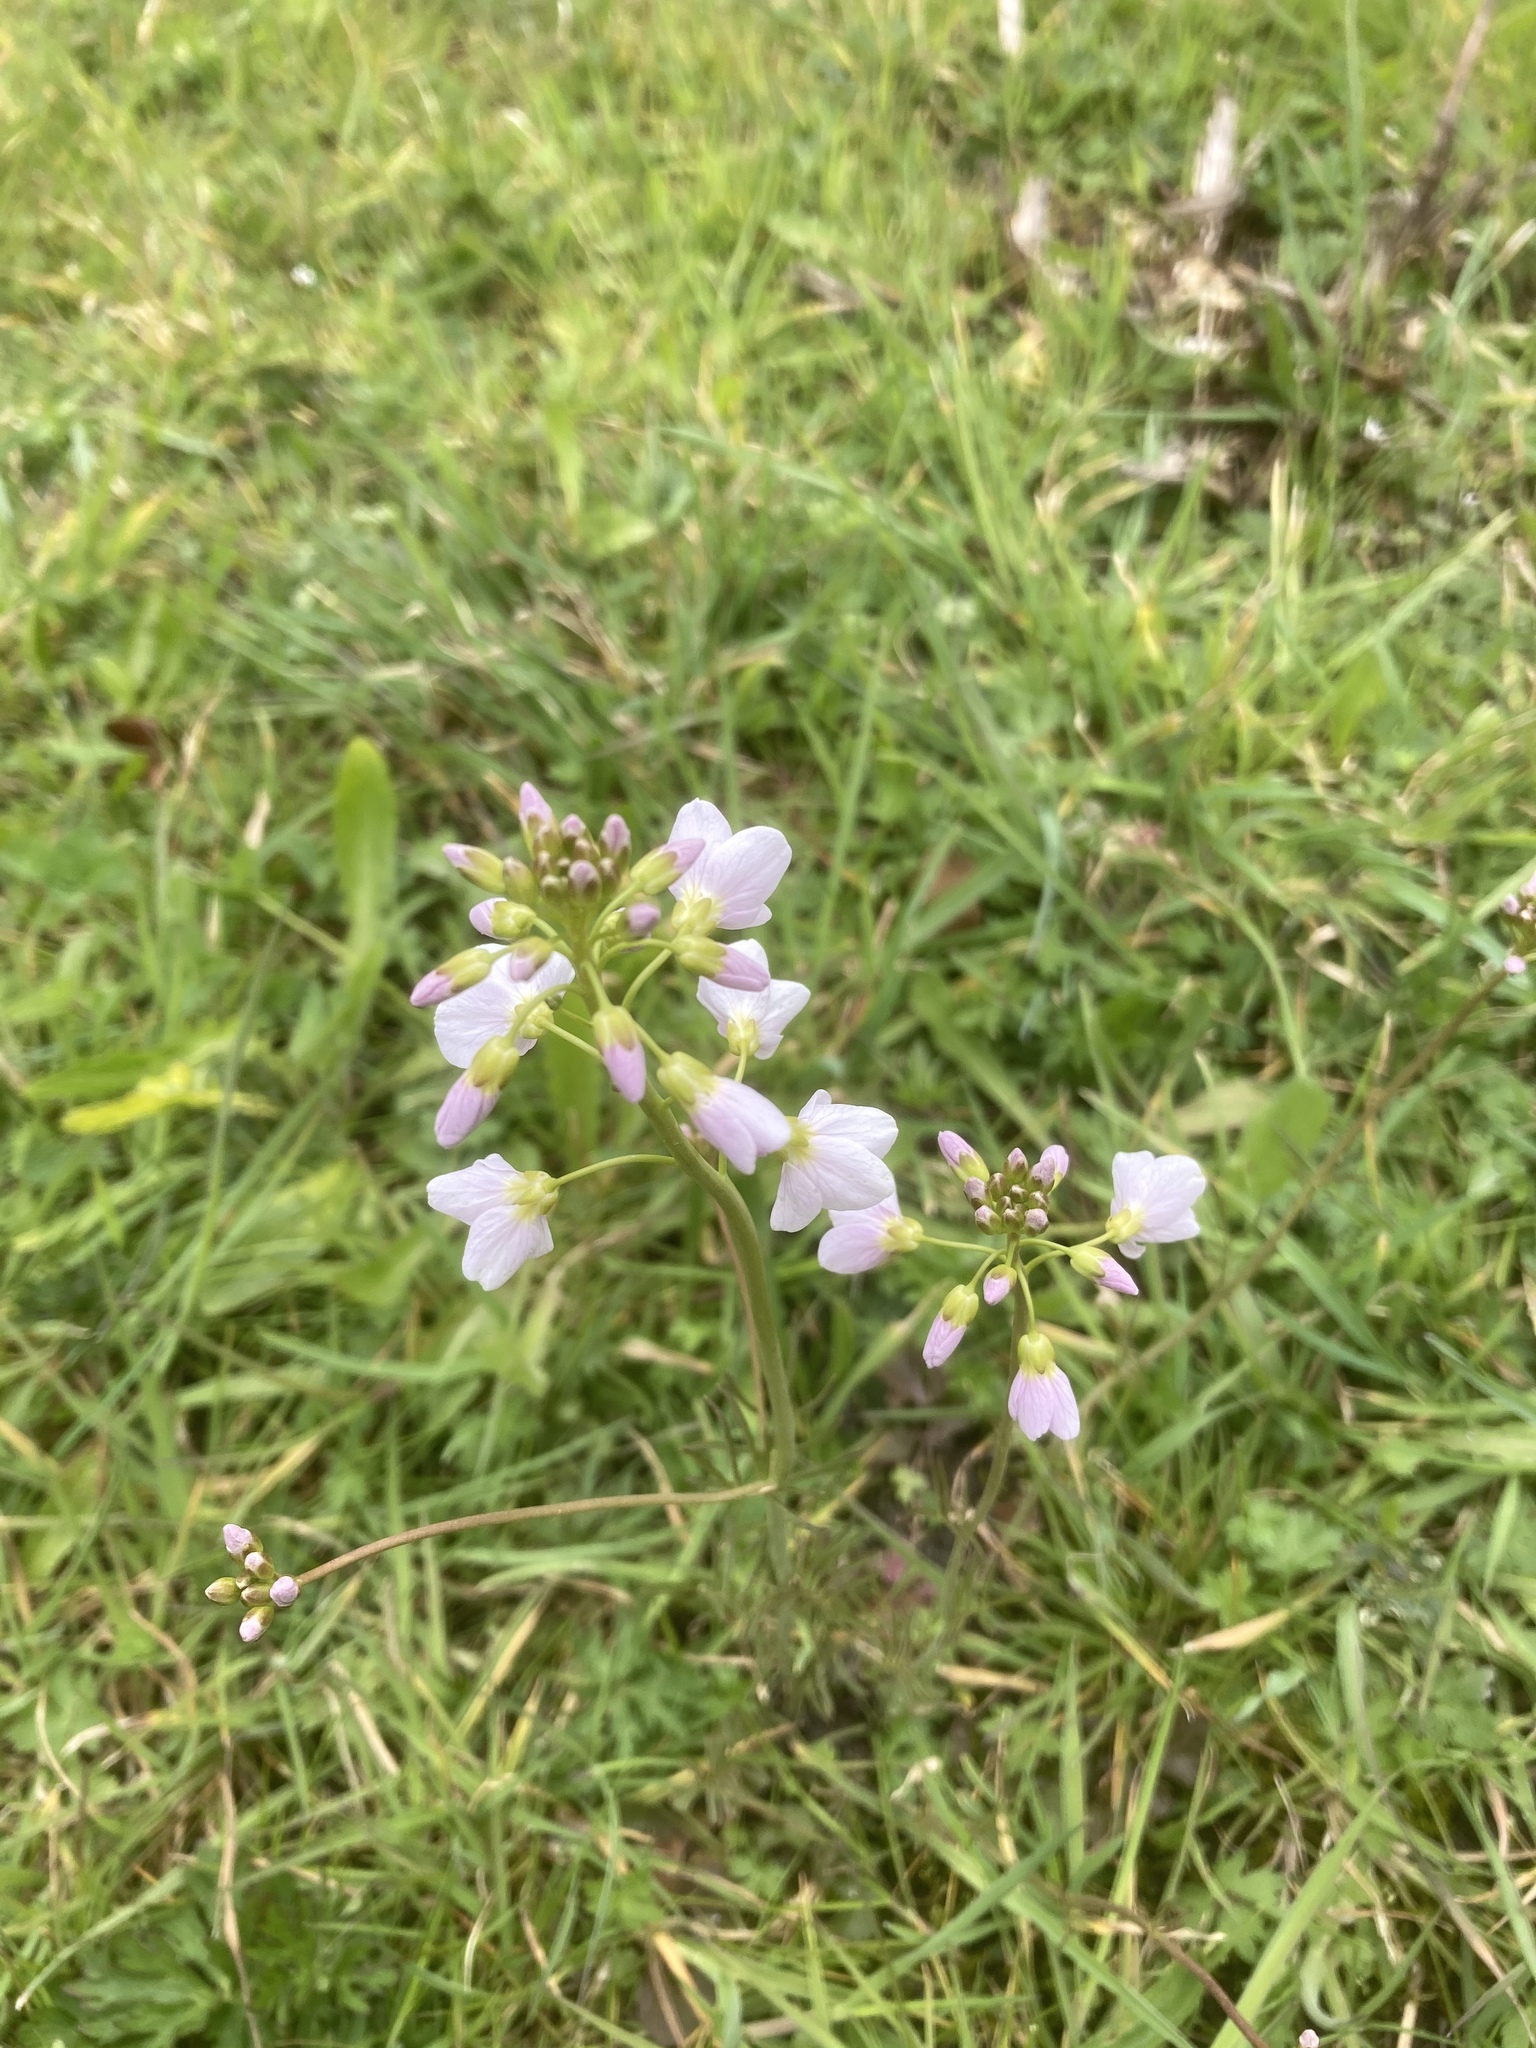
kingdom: Plantae
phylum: Tracheophyta
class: Magnoliopsida
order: Brassicales
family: Brassicaceae
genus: Cardamine
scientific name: Cardamine pratensis
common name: Cuckoo flower
